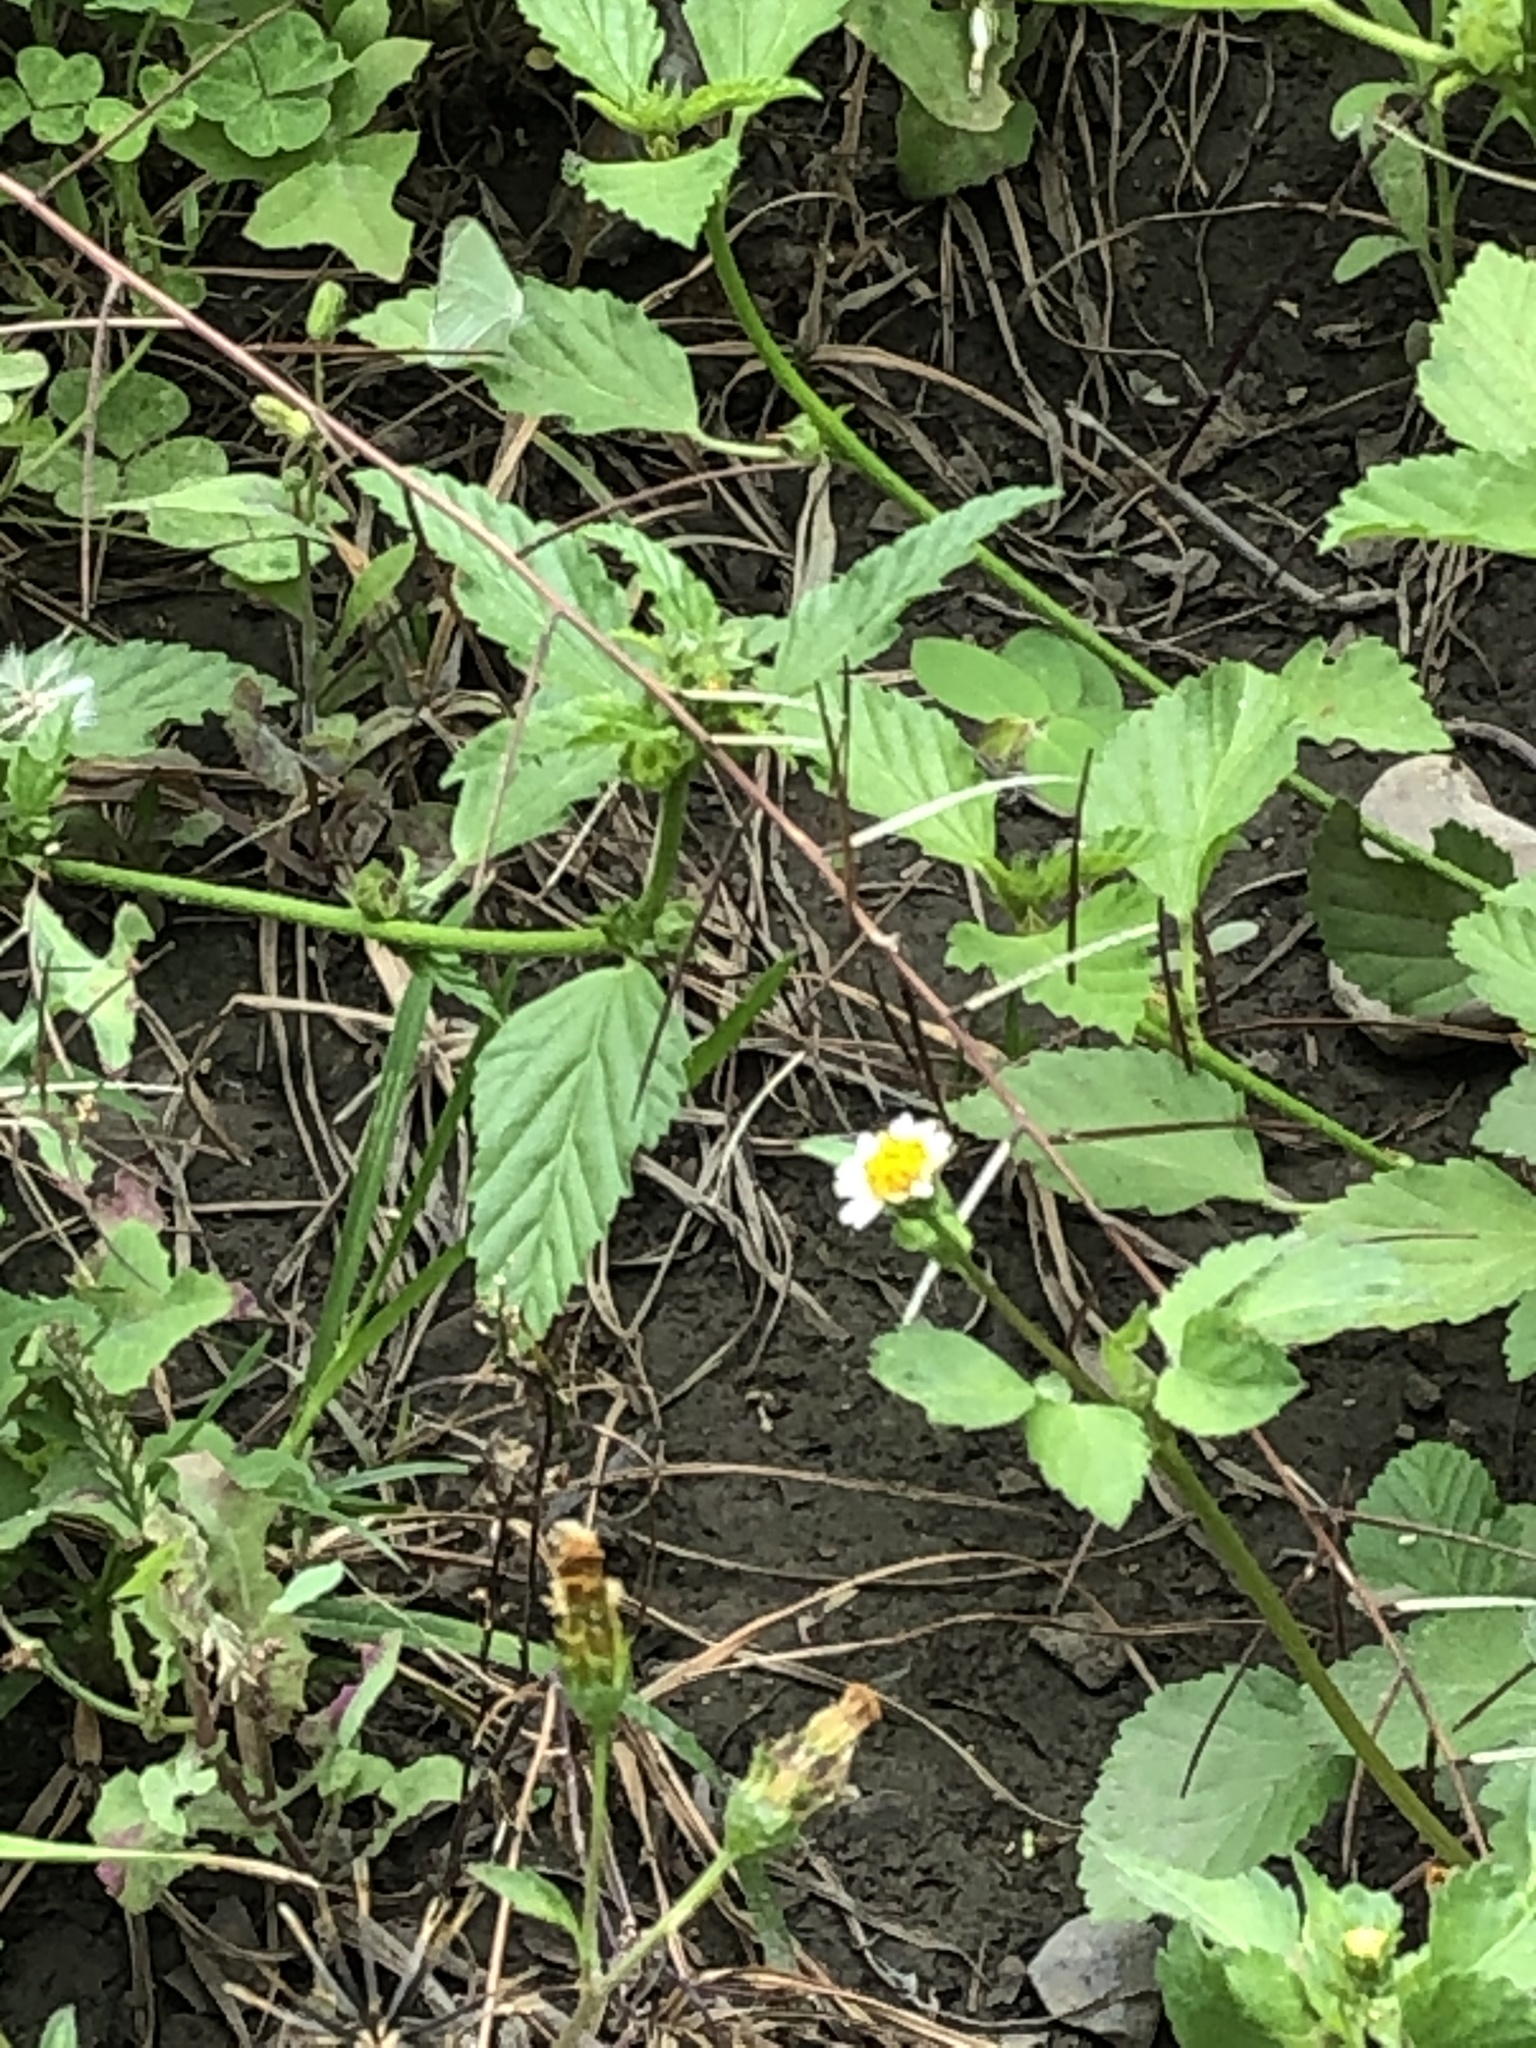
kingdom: Plantae
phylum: Tracheophyta
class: Magnoliopsida
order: Asterales
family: Asteraceae
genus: Bidens
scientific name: Bidens alba
